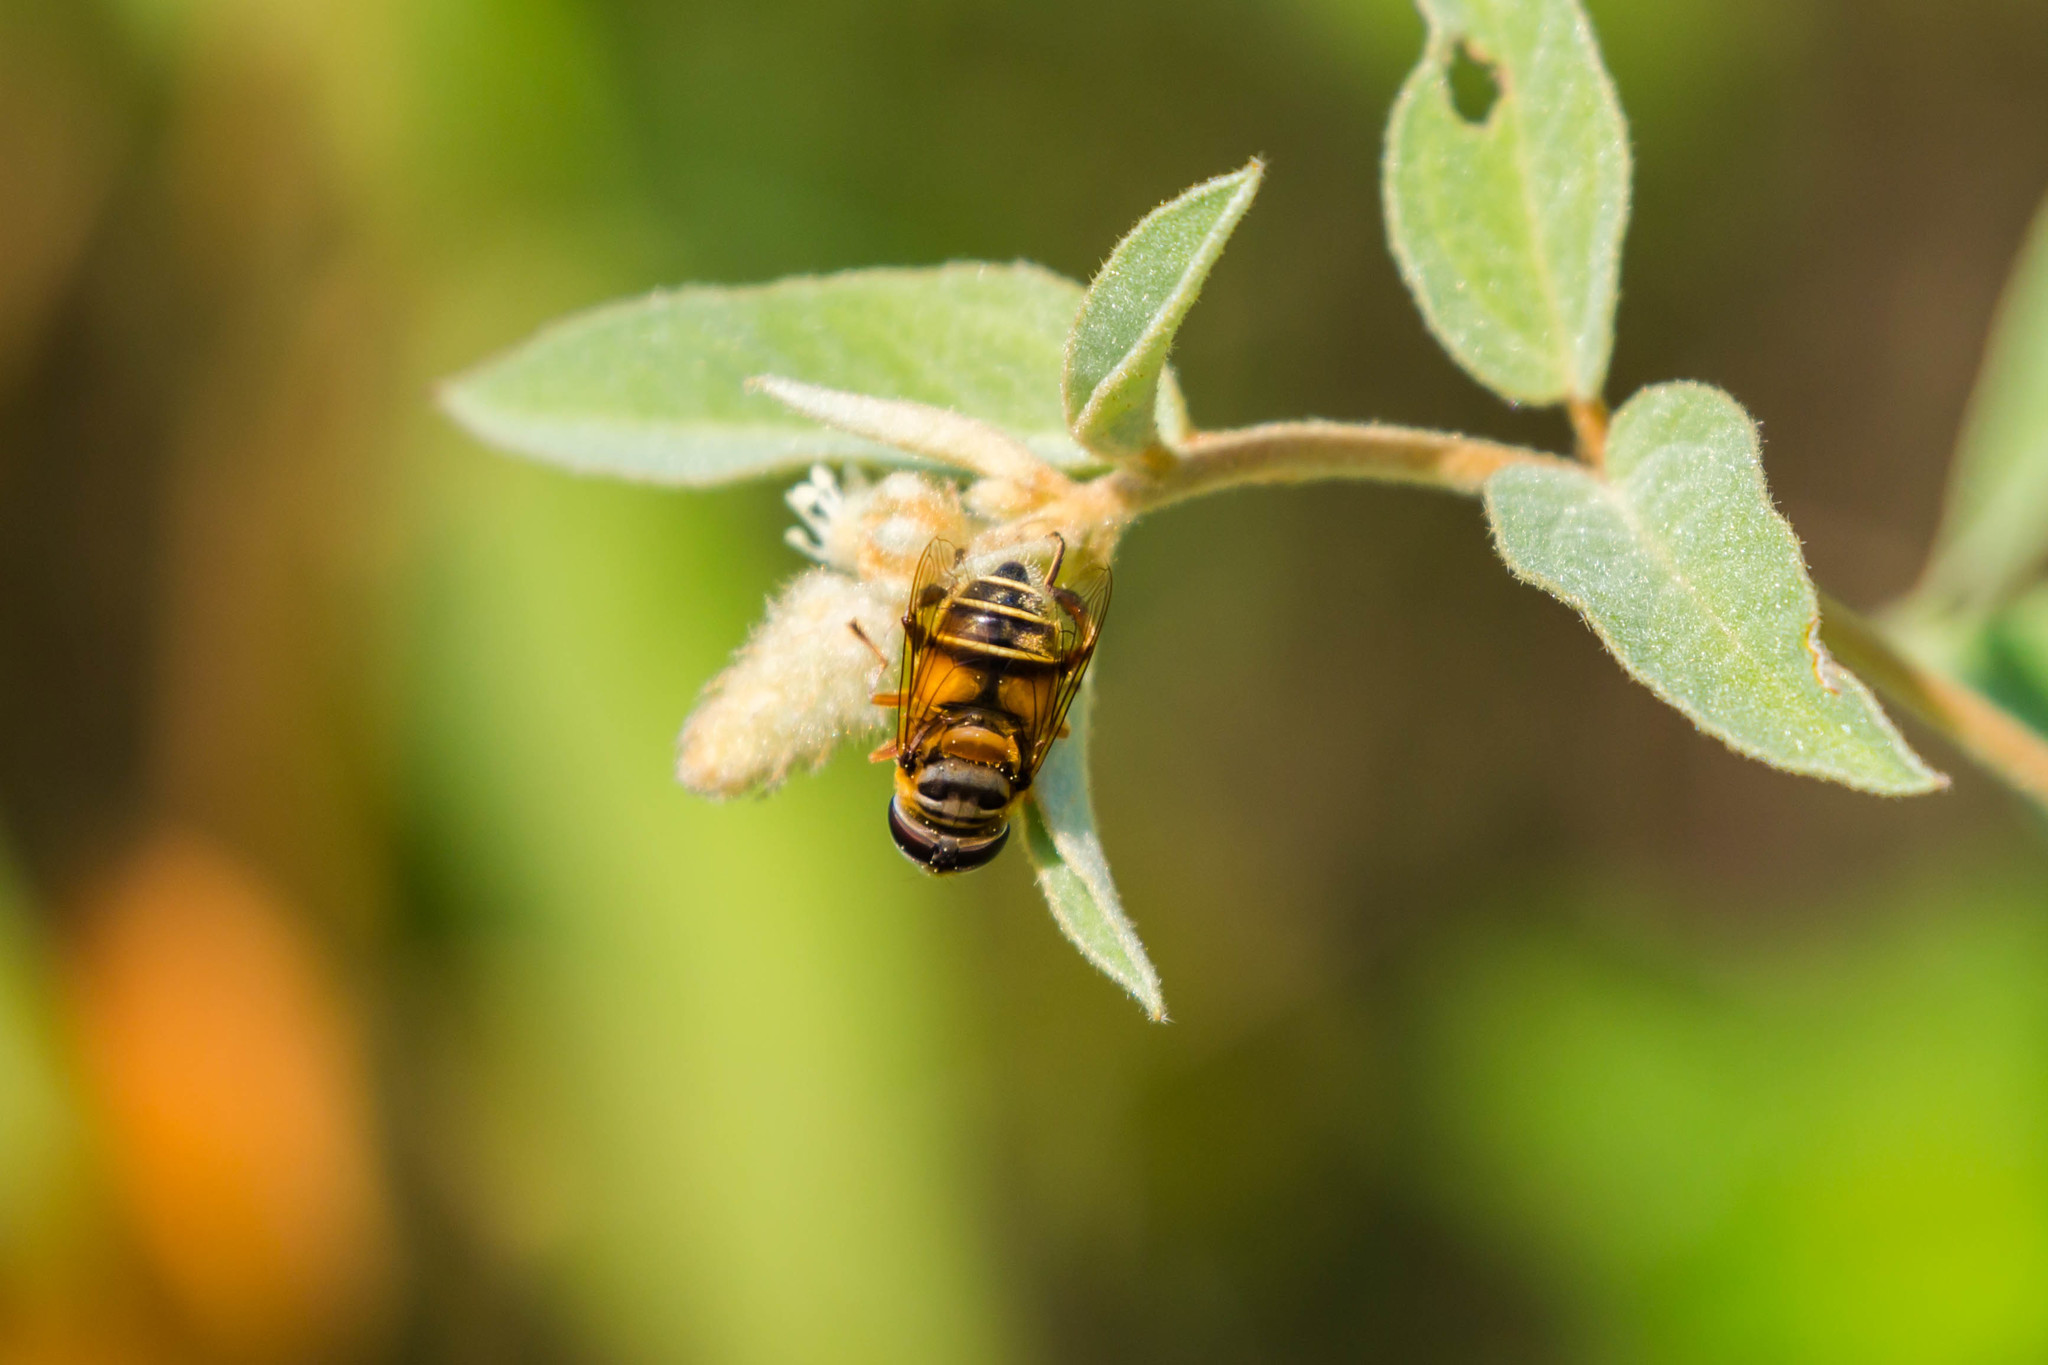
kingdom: Animalia
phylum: Arthropoda
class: Insecta
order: Diptera
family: Syrphidae
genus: Palpada
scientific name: Palpada vinetorum
